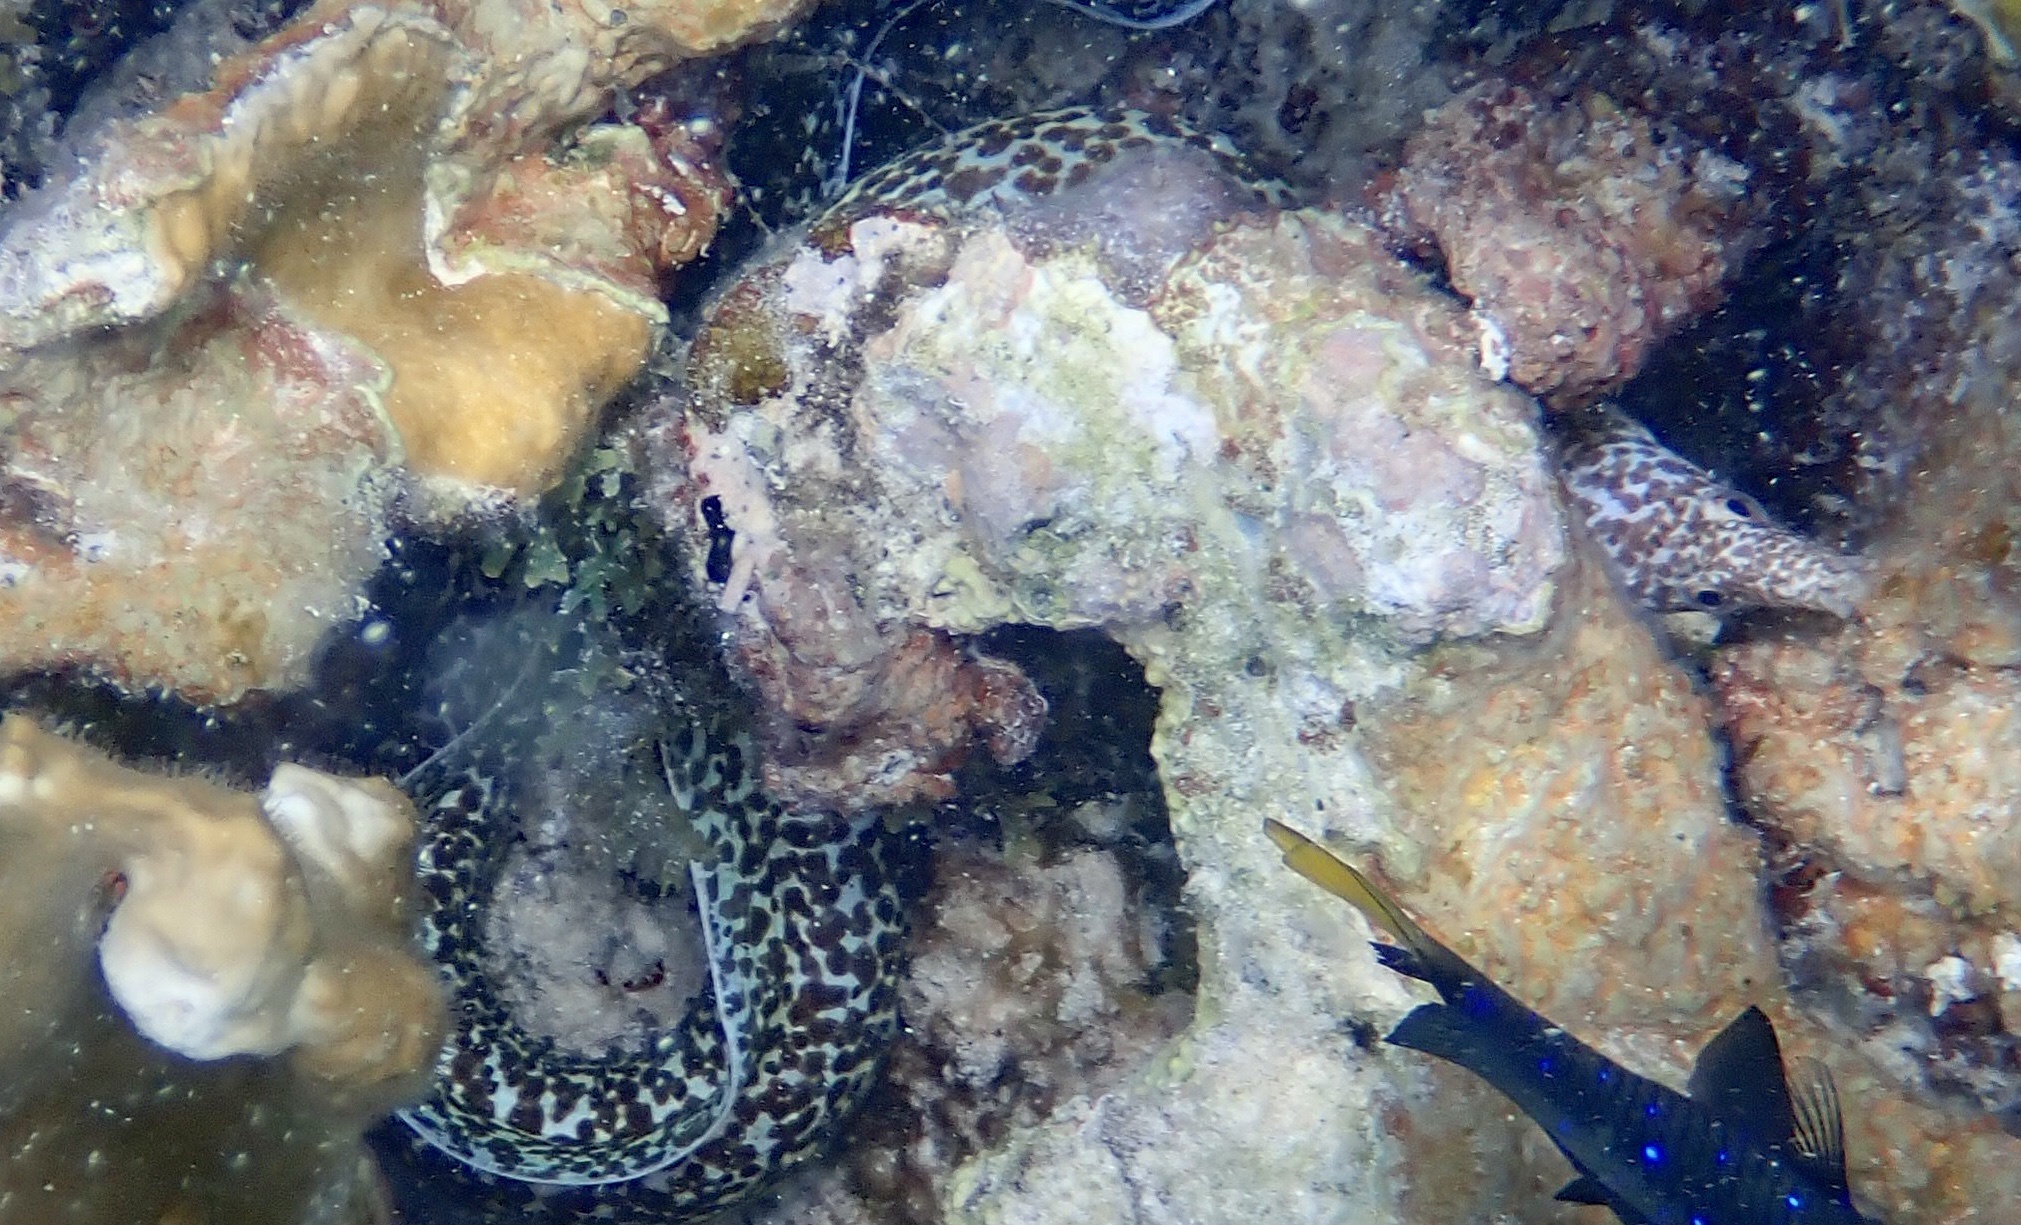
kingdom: Animalia
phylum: Chordata
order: Anguilliformes
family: Muraenidae
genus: Gymnothorax
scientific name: Gymnothorax moringa
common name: Spotted moray
